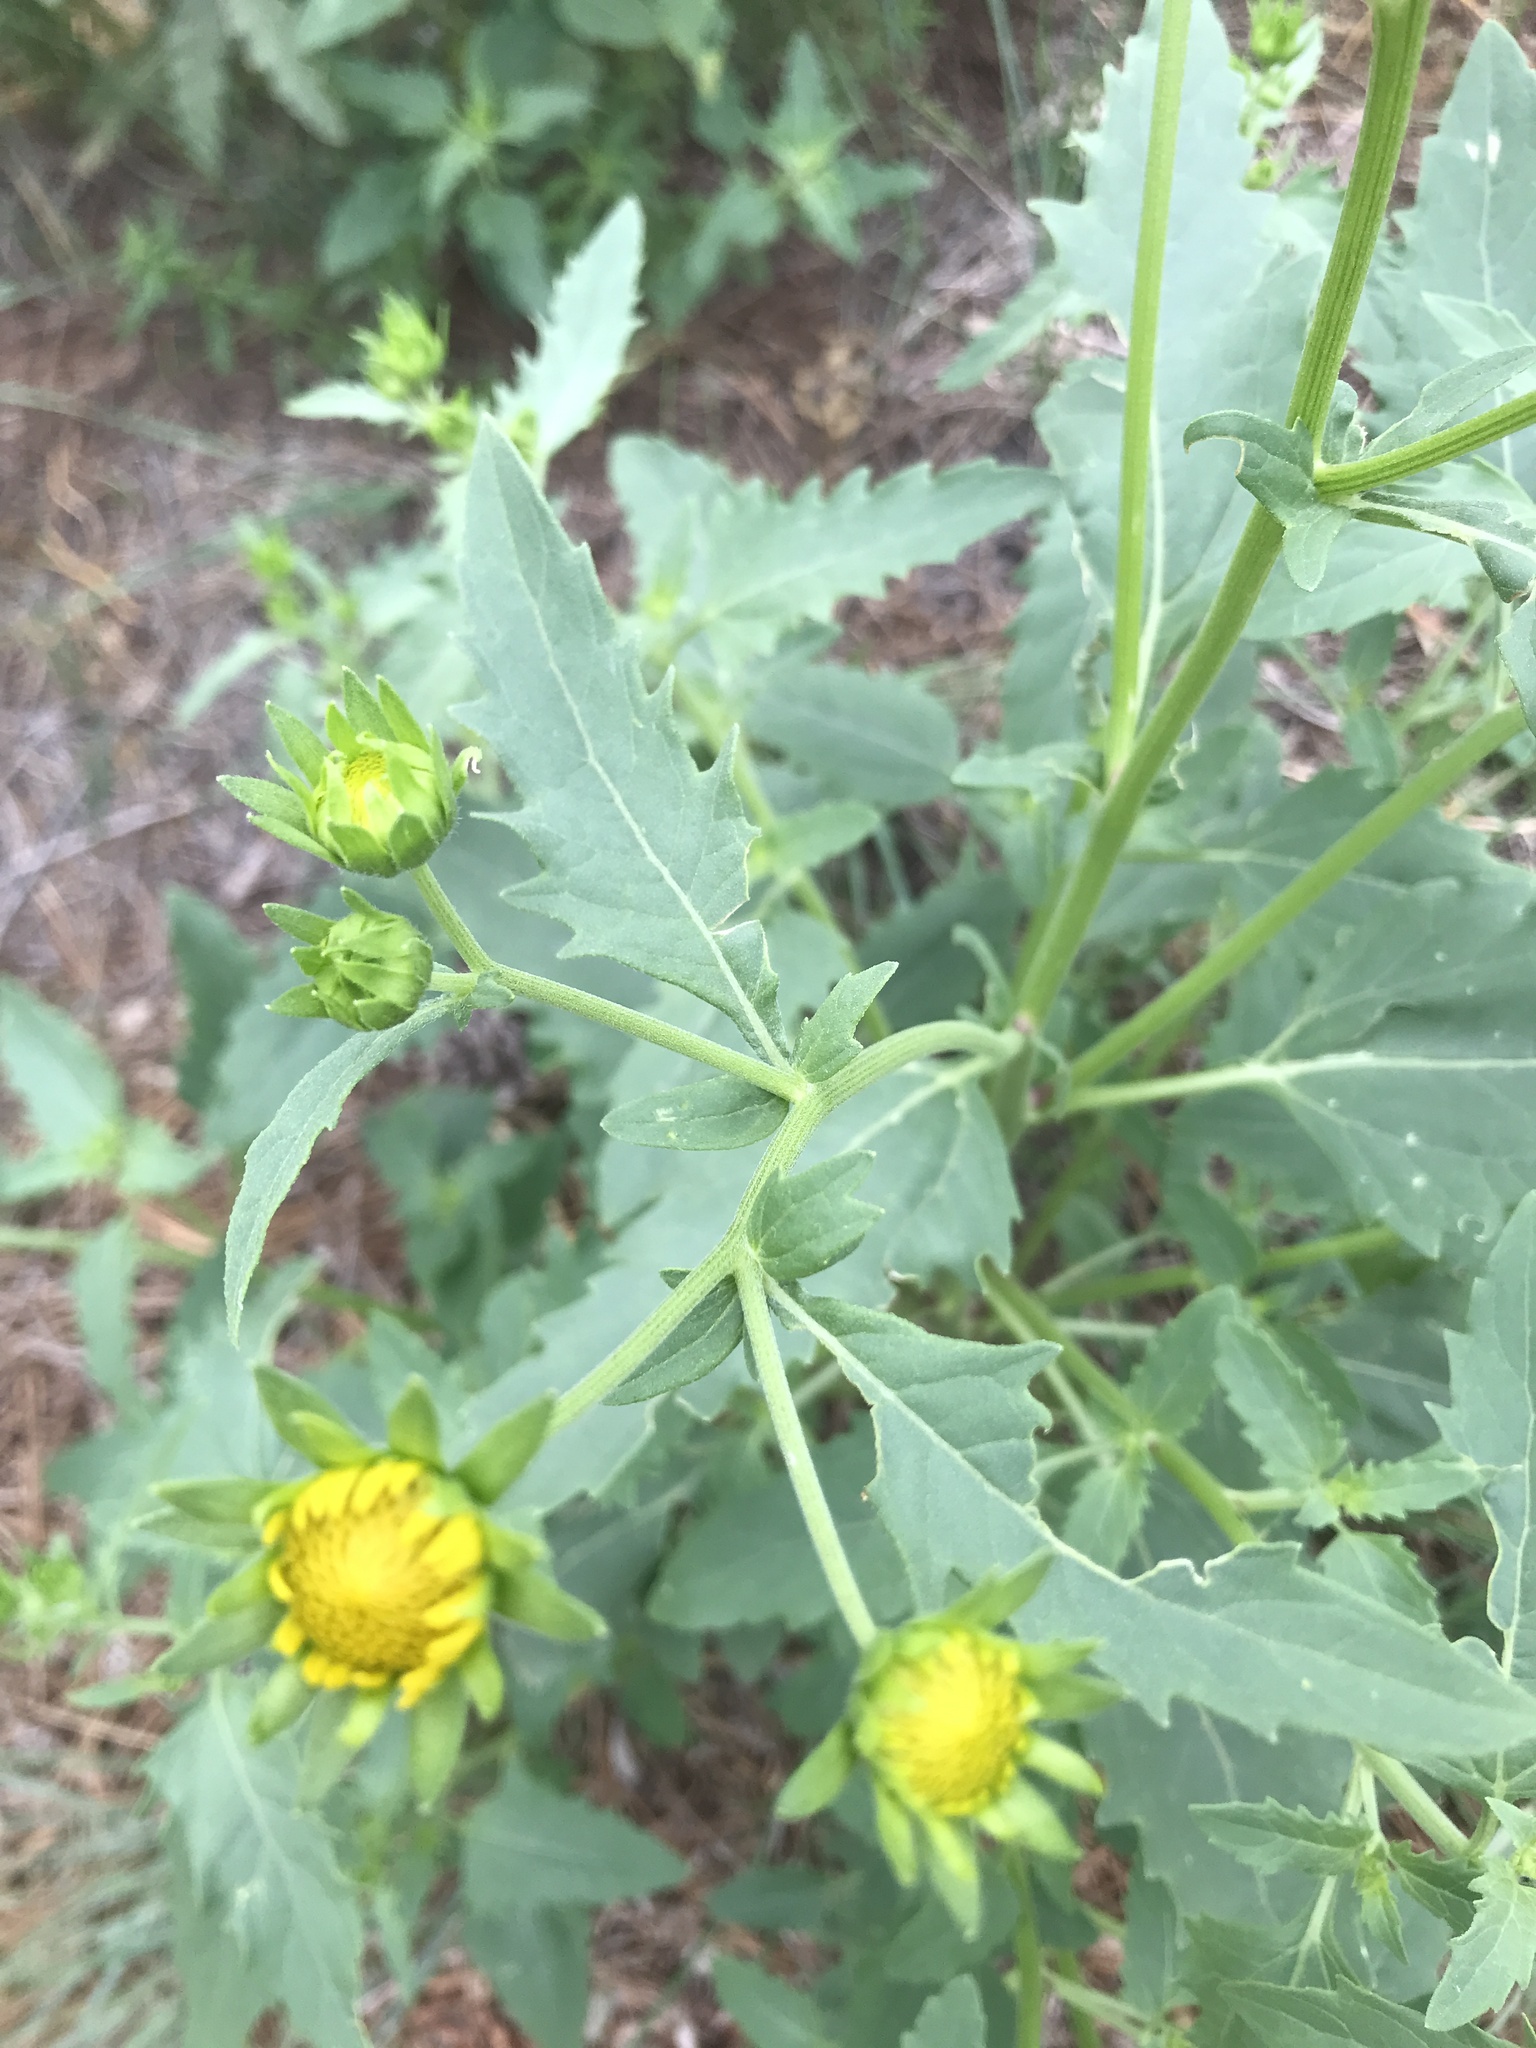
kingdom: Plantae
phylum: Tracheophyta
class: Magnoliopsida
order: Asterales
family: Asteraceae
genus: Verbesina
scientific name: Verbesina encelioides
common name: Golden crownbeard
